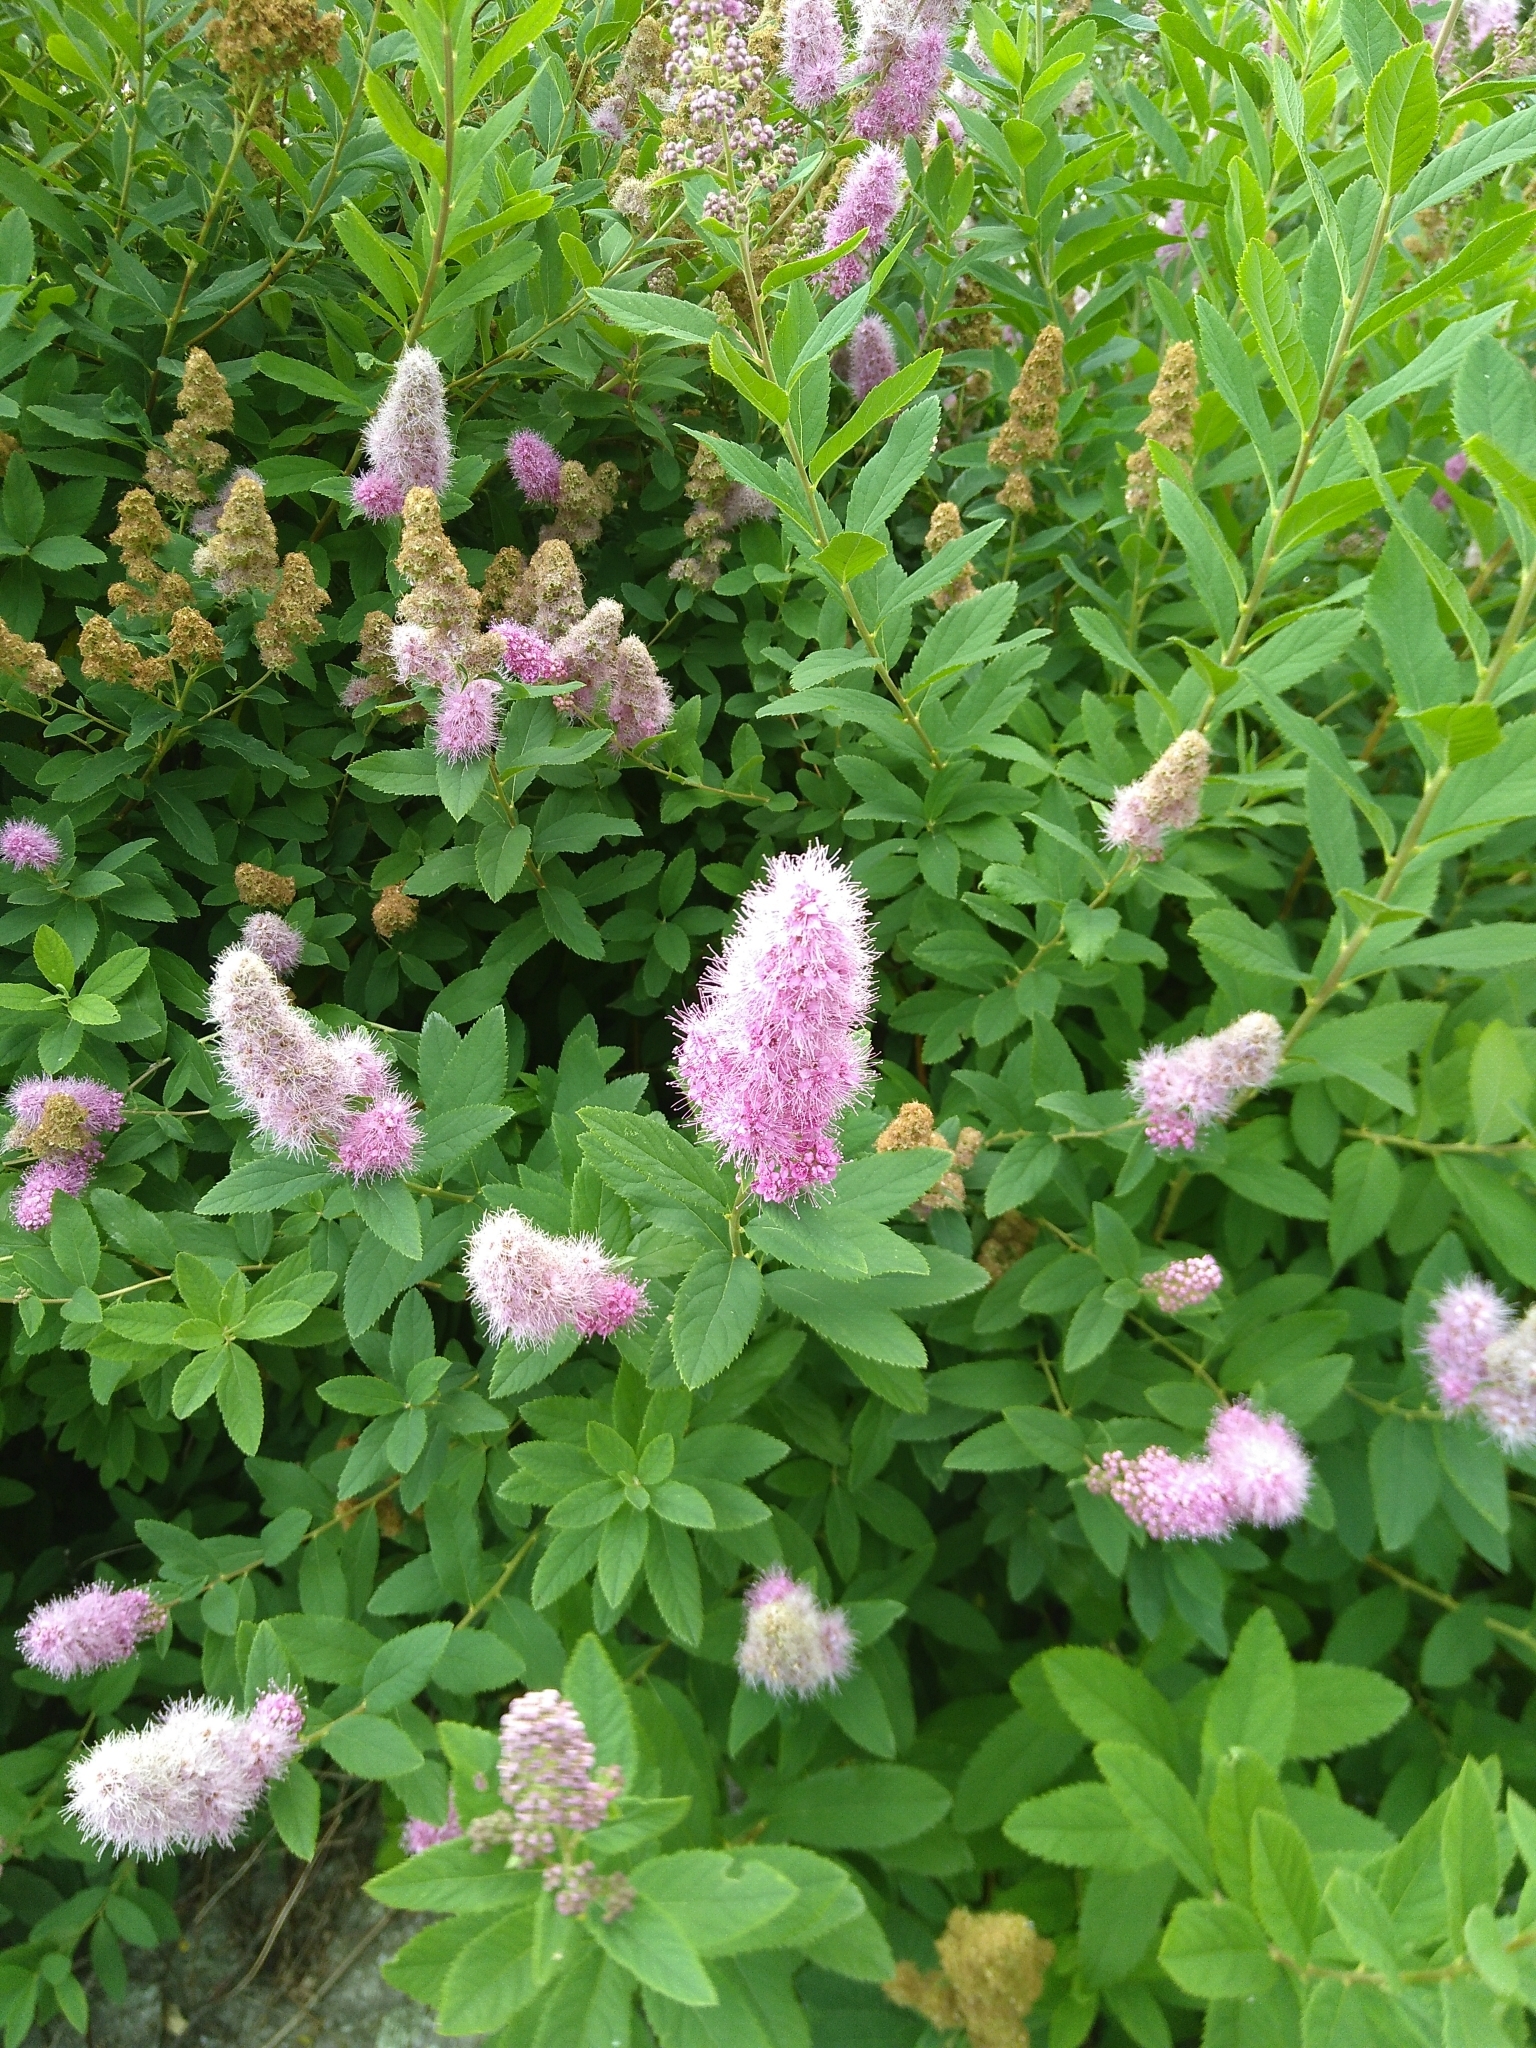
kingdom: Plantae
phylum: Tracheophyta
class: Magnoliopsida
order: Rosales
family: Rosaceae
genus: Spiraea
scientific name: Spiraea douglasii
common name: Steeplebush
